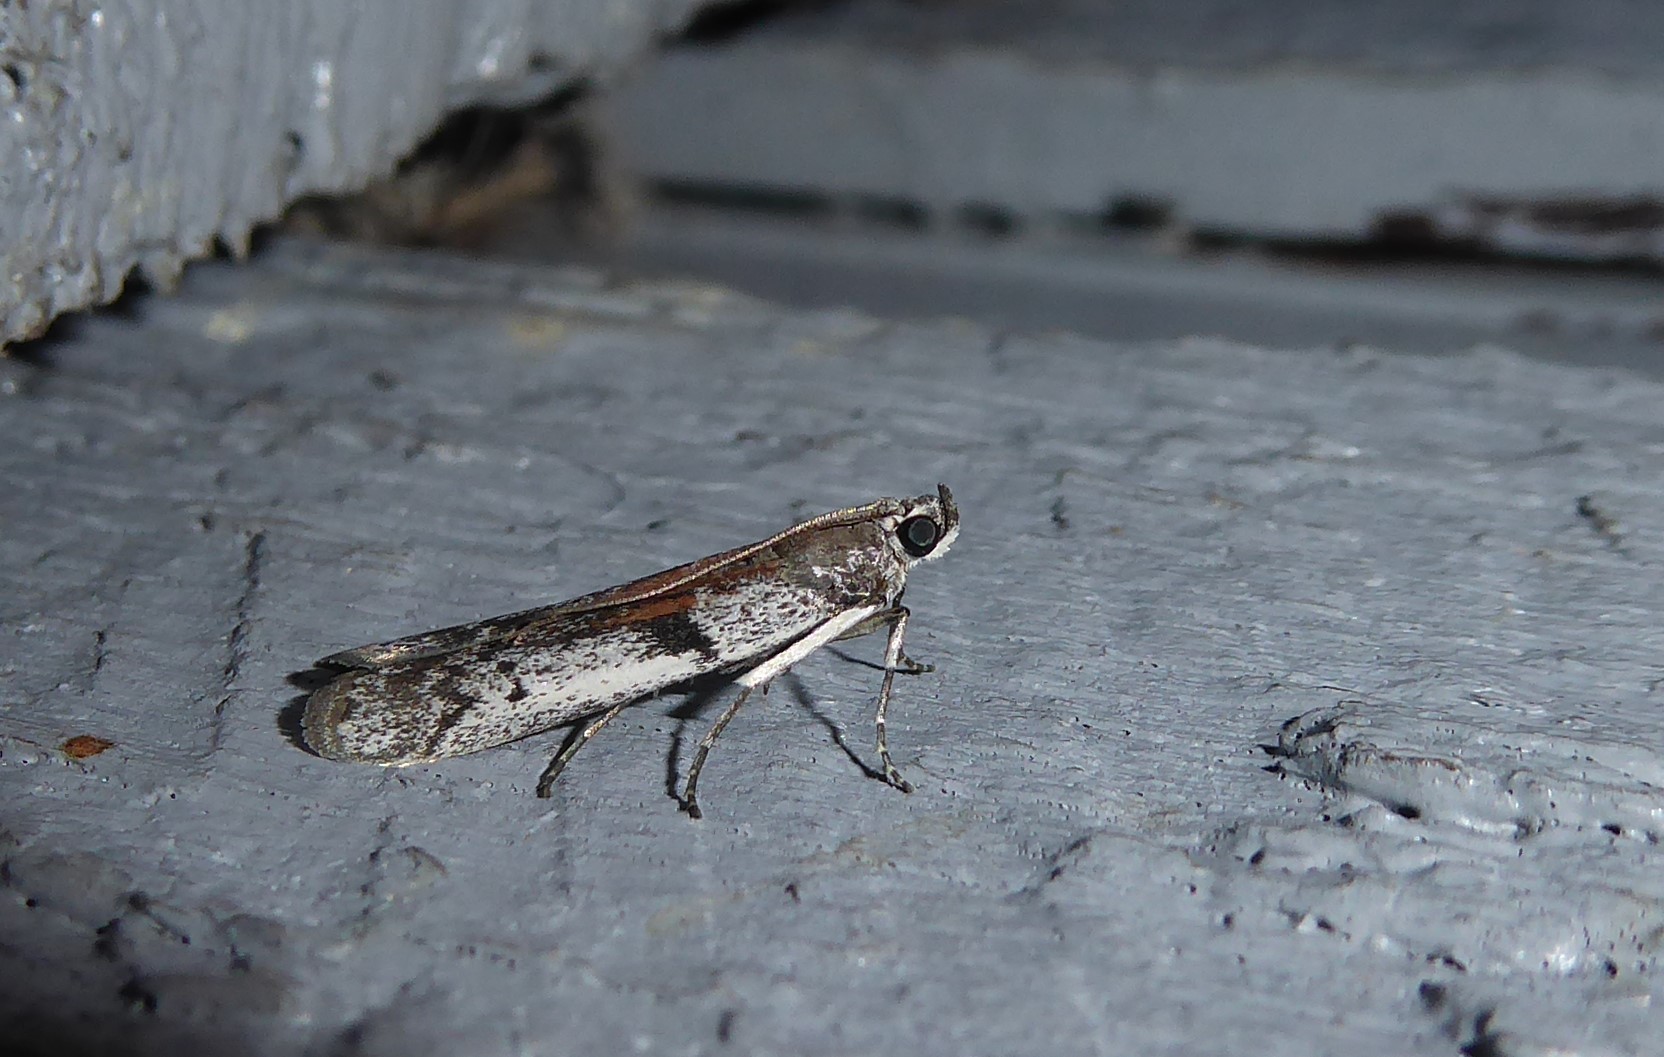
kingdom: Animalia
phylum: Arthropoda
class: Insecta
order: Lepidoptera
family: Pyralidae
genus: Patagoniodes
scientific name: Patagoniodes farinaria
